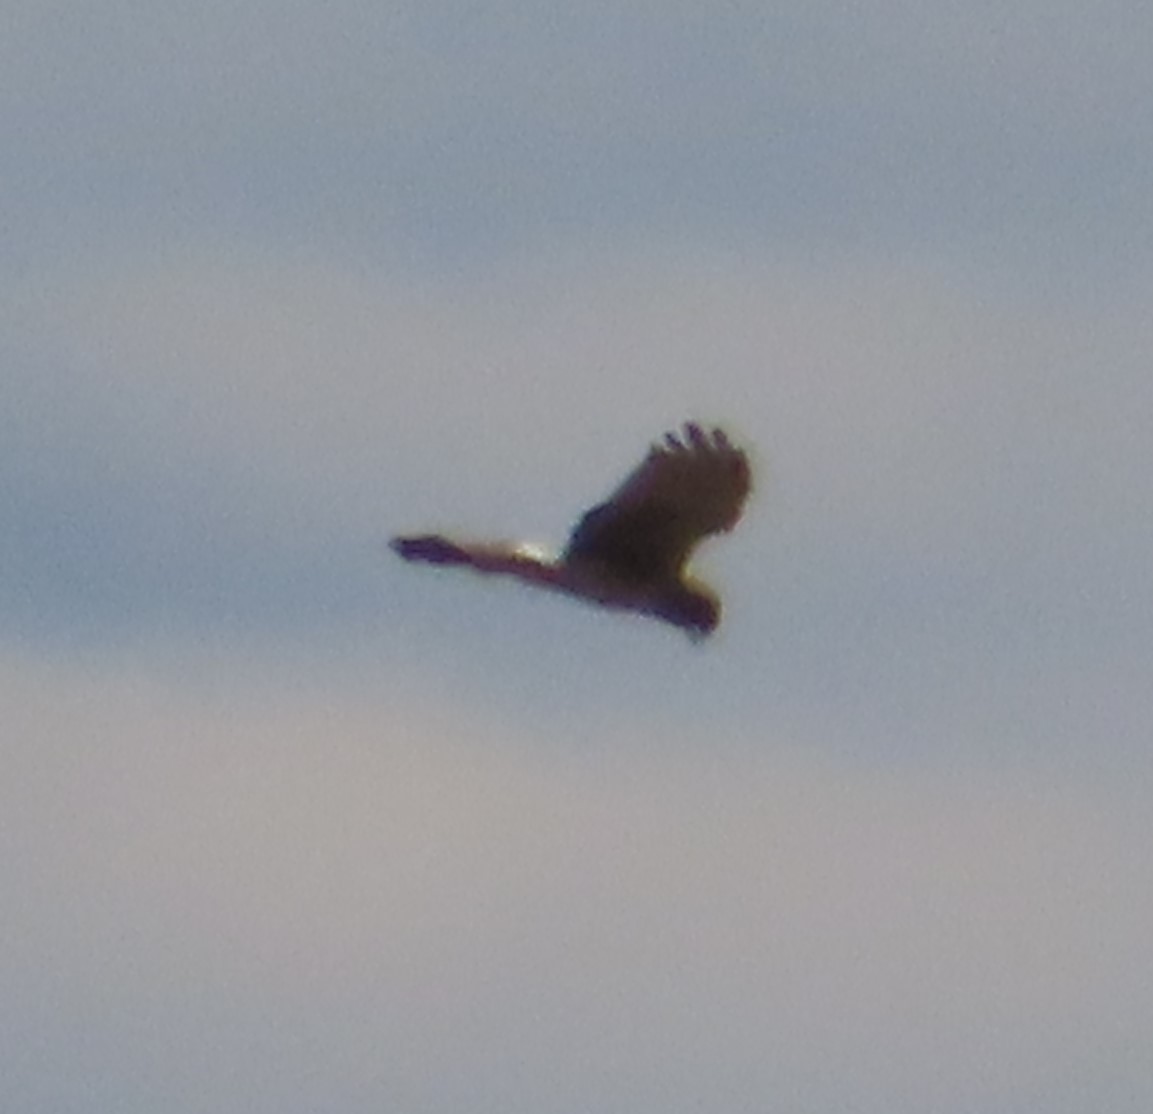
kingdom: Animalia
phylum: Chordata
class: Aves
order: Accipitriformes
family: Accipitridae
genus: Circus
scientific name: Circus cyaneus
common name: Hen harrier
